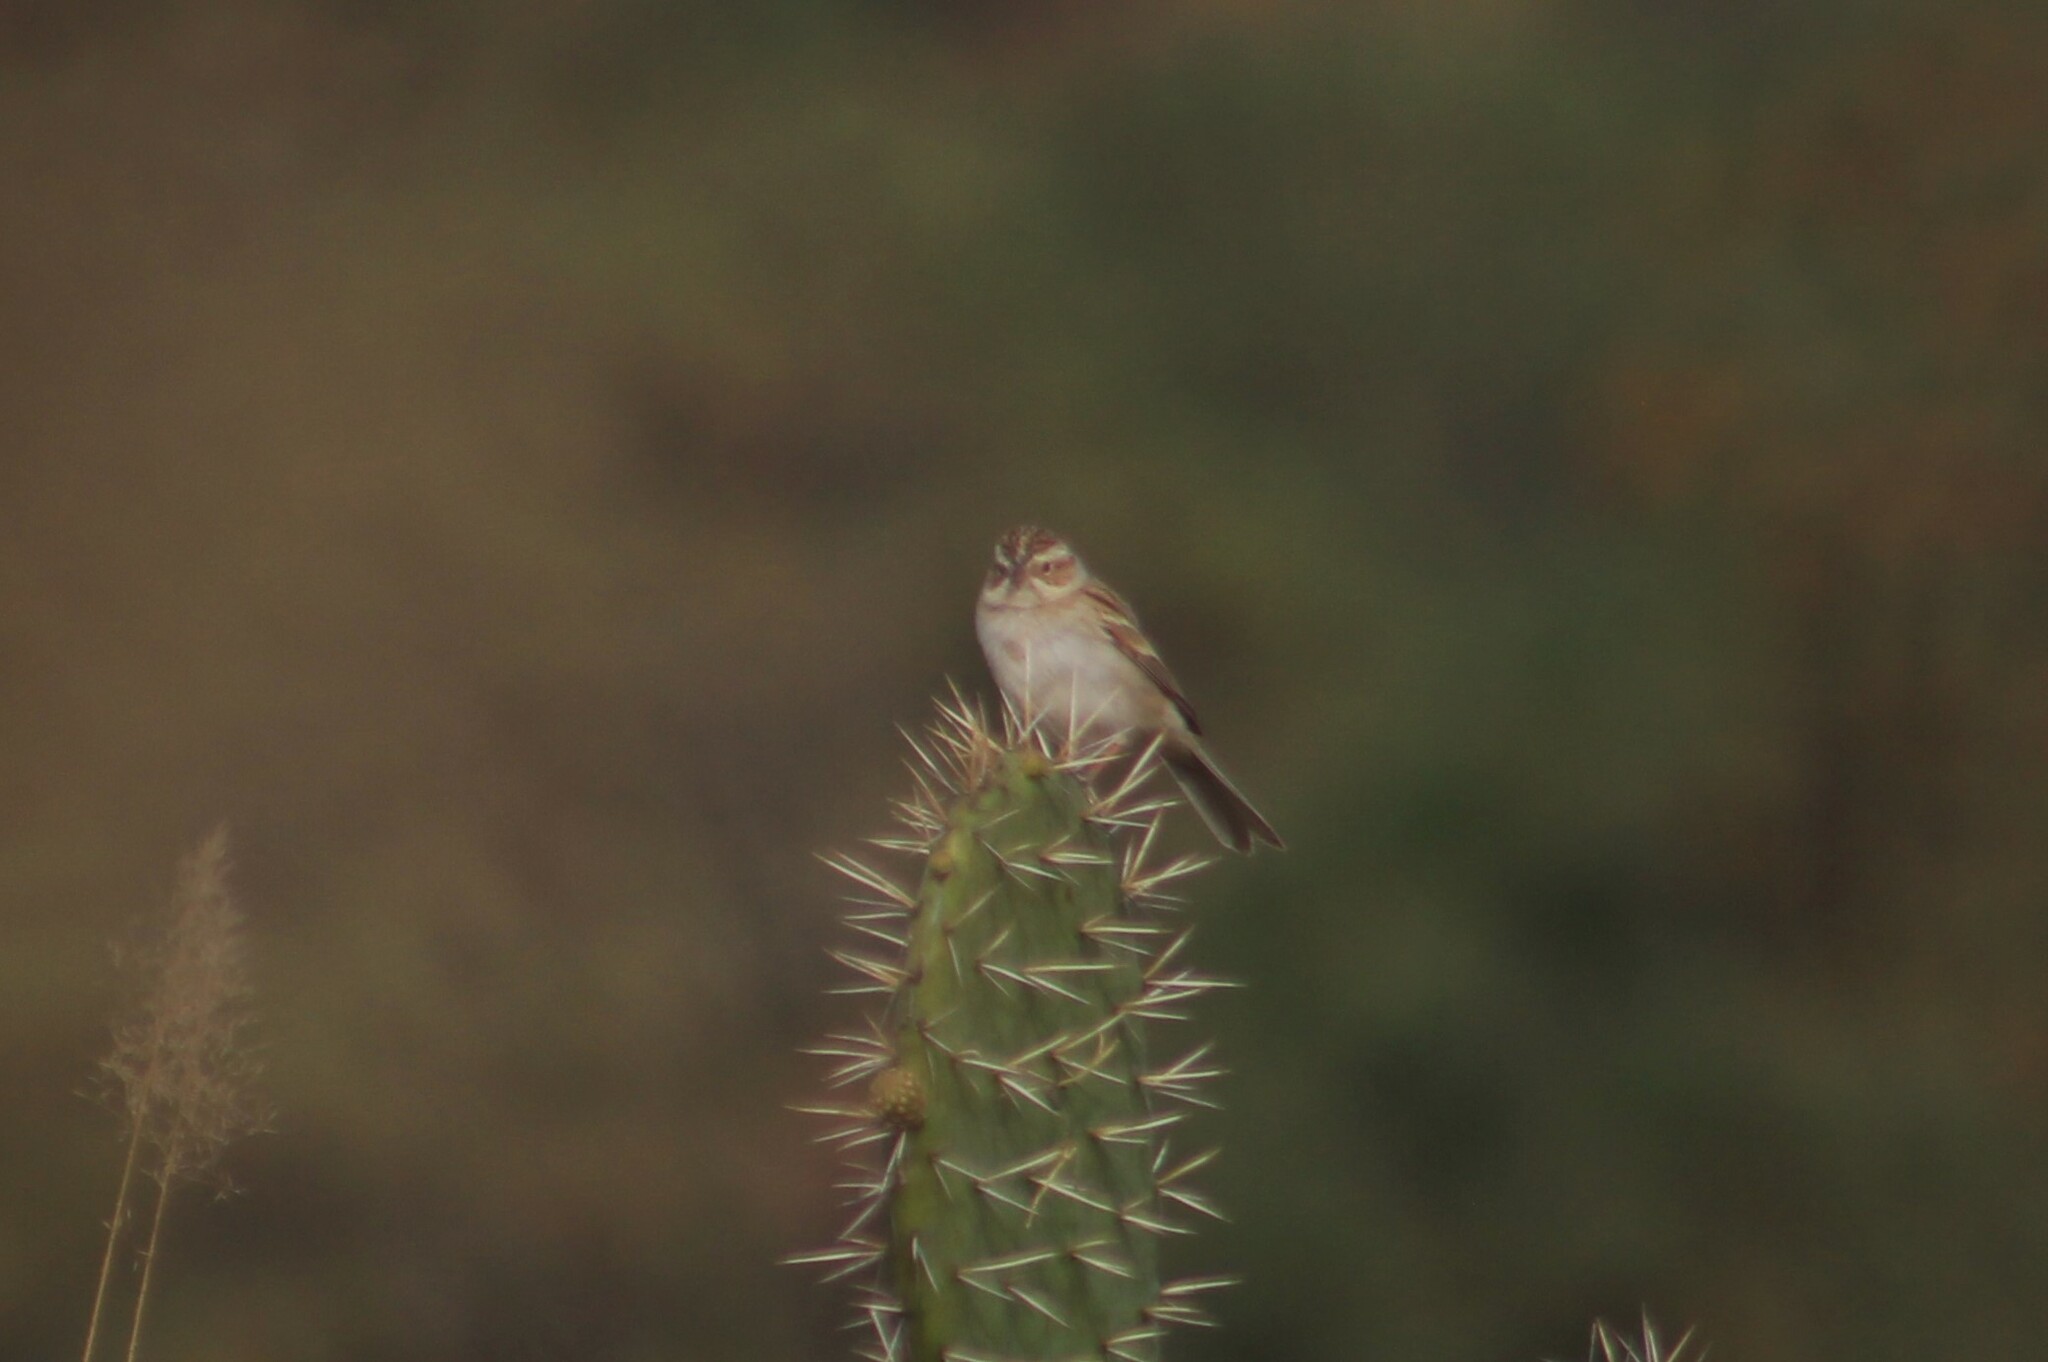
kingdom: Animalia
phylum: Chordata
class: Aves
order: Passeriformes
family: Passerellidae
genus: Spizella
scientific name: Spizella pallida
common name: Clay-colored sparrow
